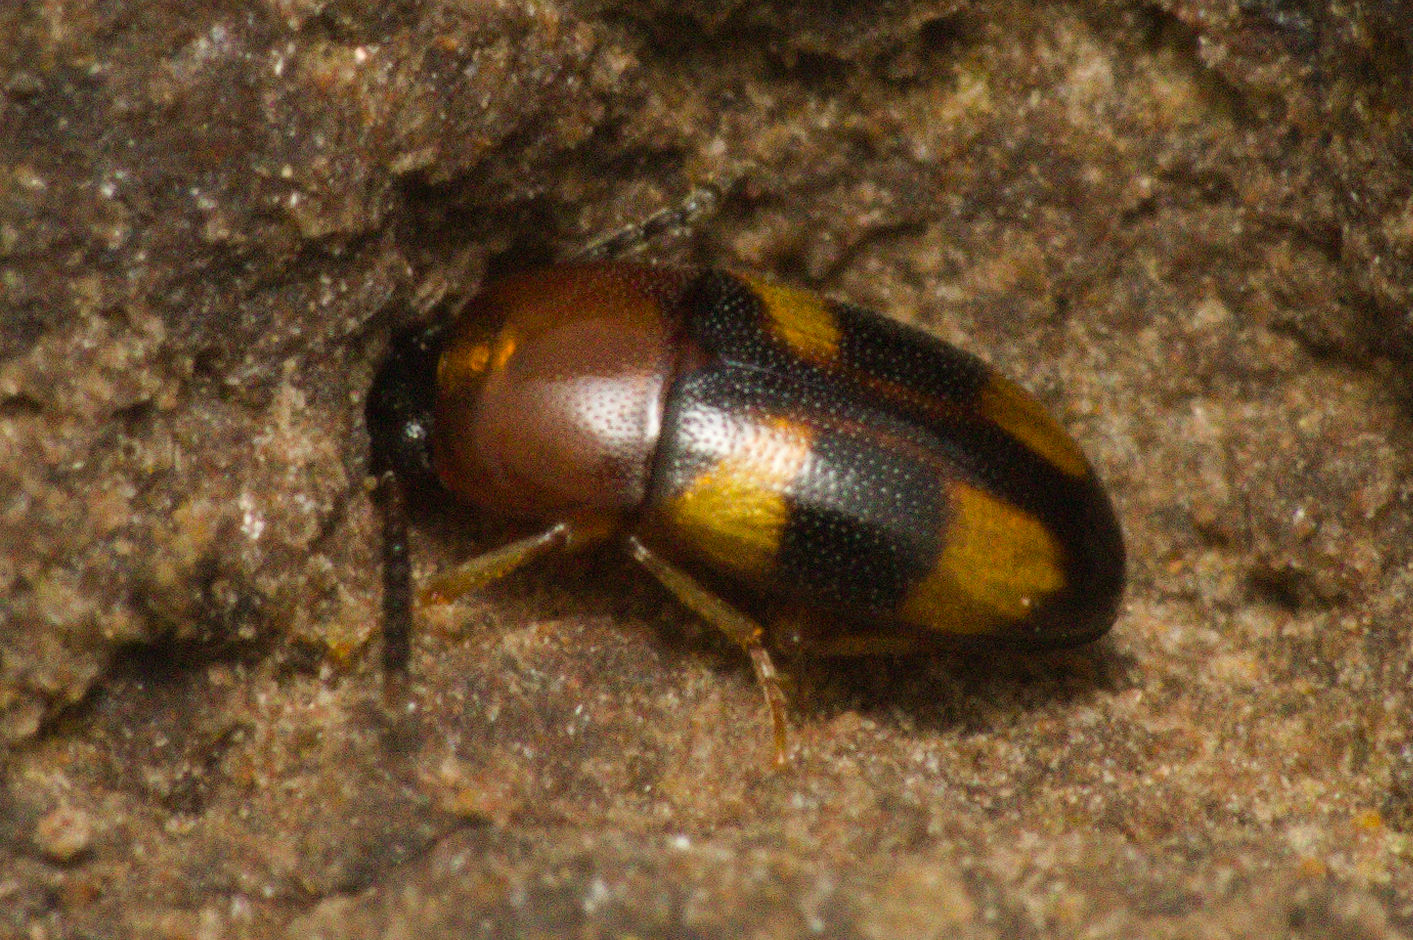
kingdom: Animalia
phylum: Arthropoda
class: Insecta
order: Coleoptera
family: Tenebrionidae
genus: Poecilocrypticus
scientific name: Poecilocrypticus formicophilus
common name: Darkling beetle
